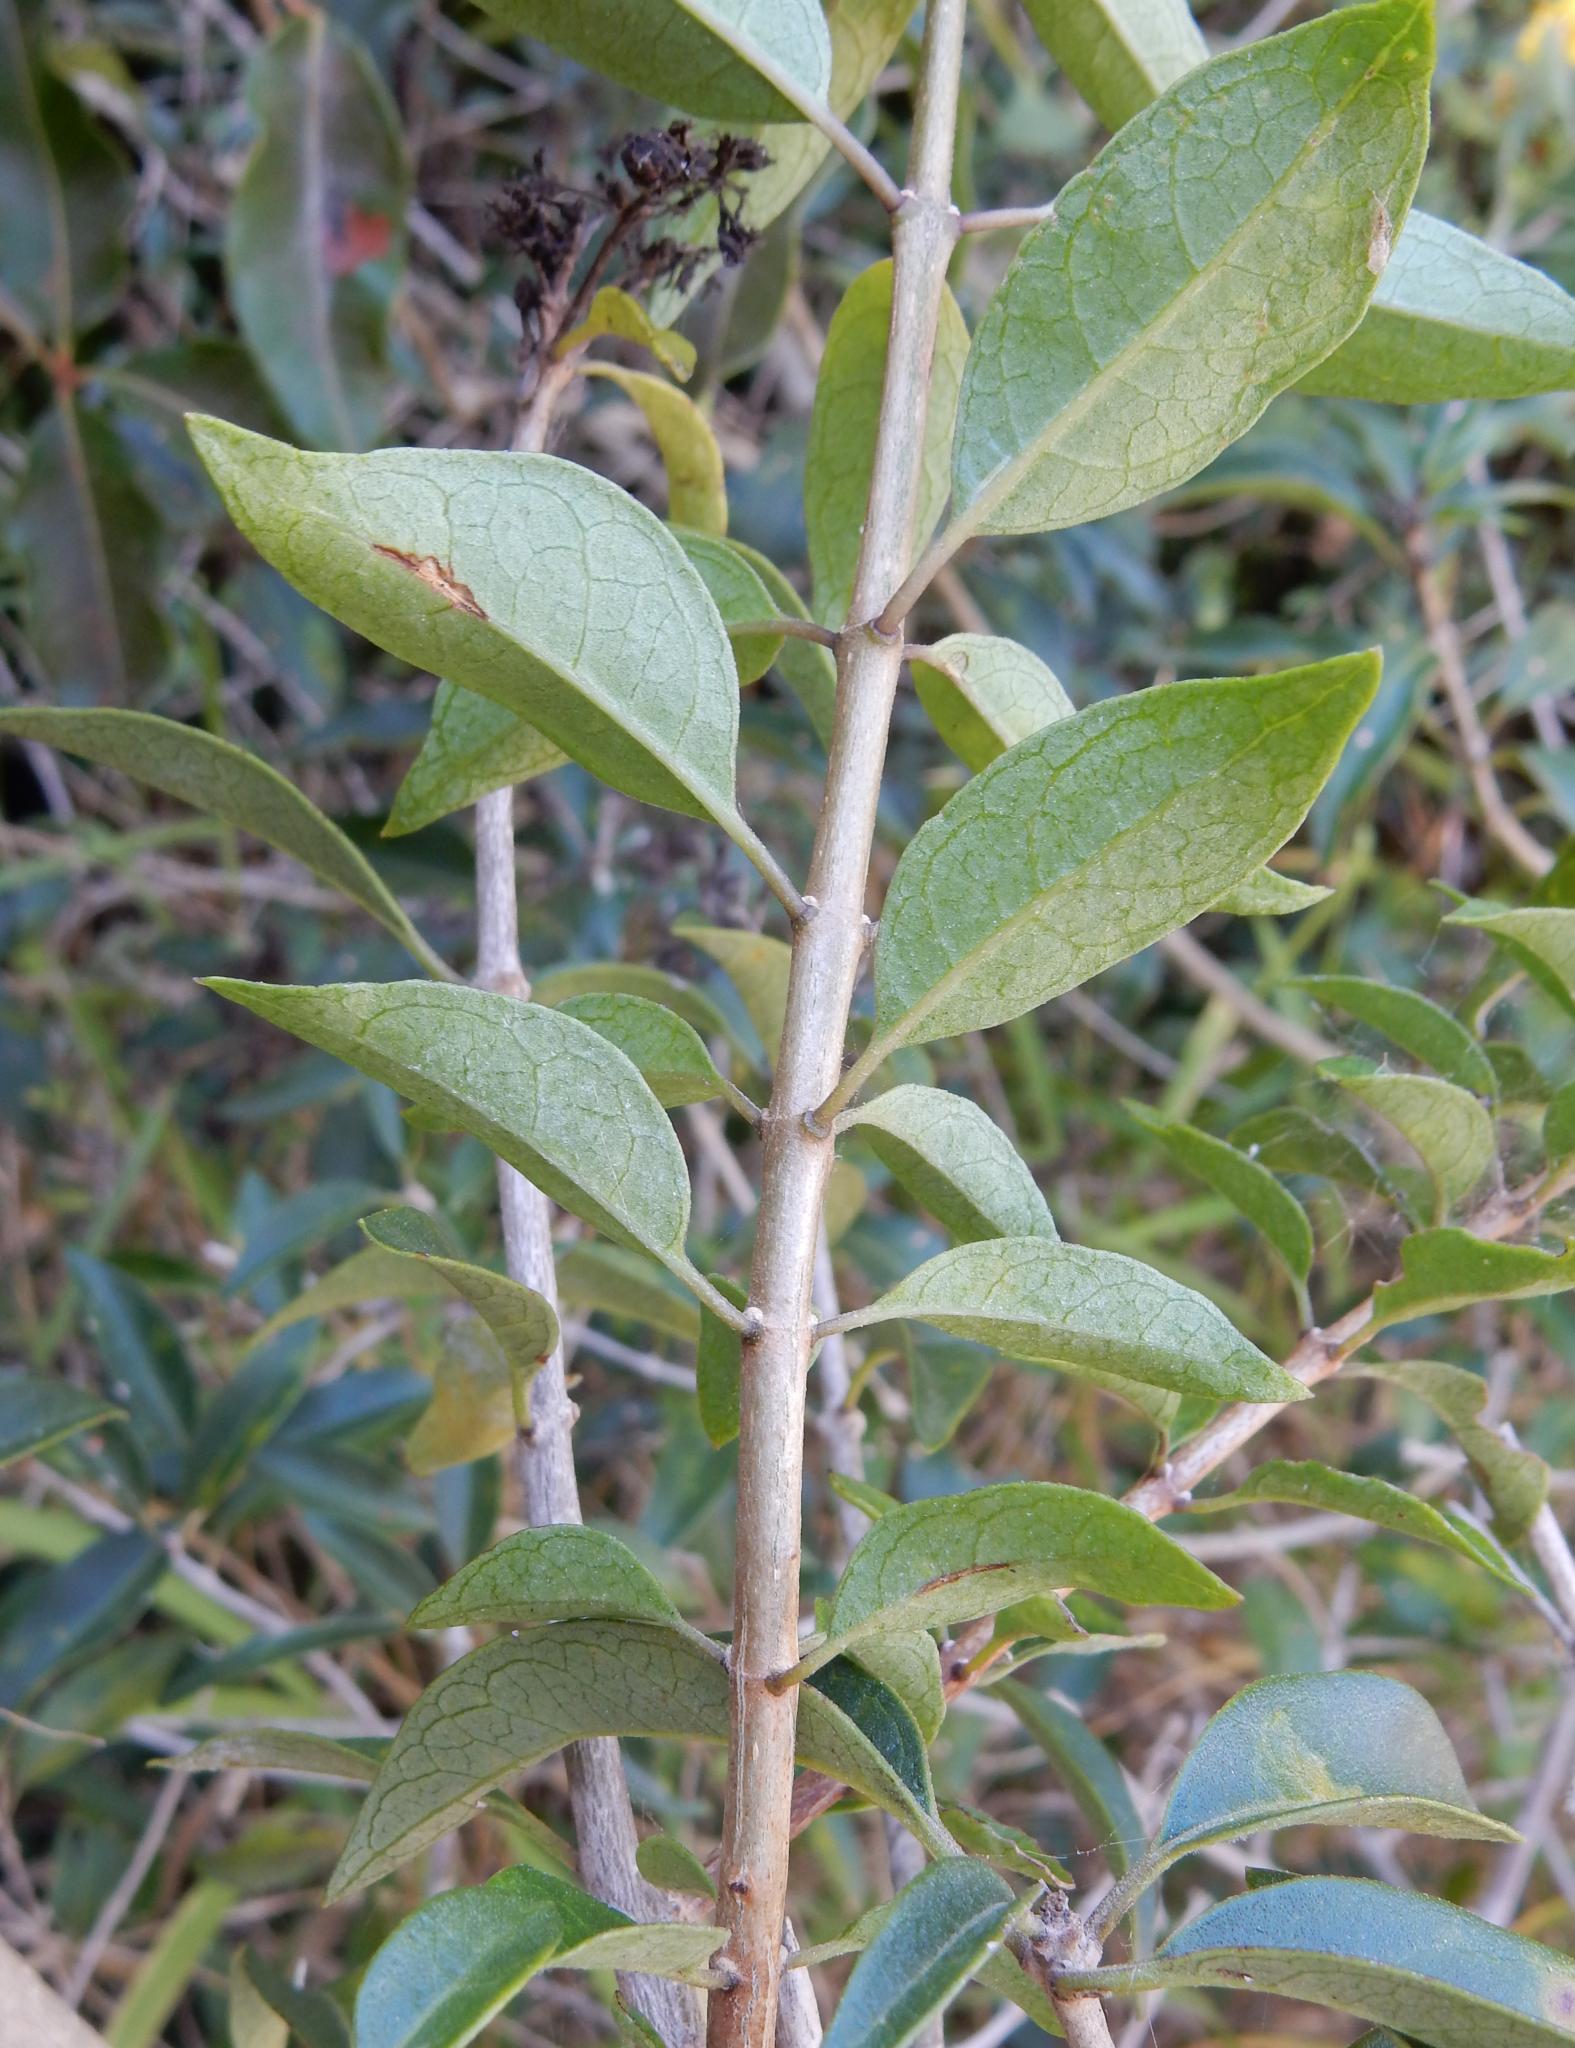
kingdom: Plantae
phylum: Tracheophyta
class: Magnoliopsida
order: Lamiales
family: Lamiaceae
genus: Volkameria
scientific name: Volkameria glabra
